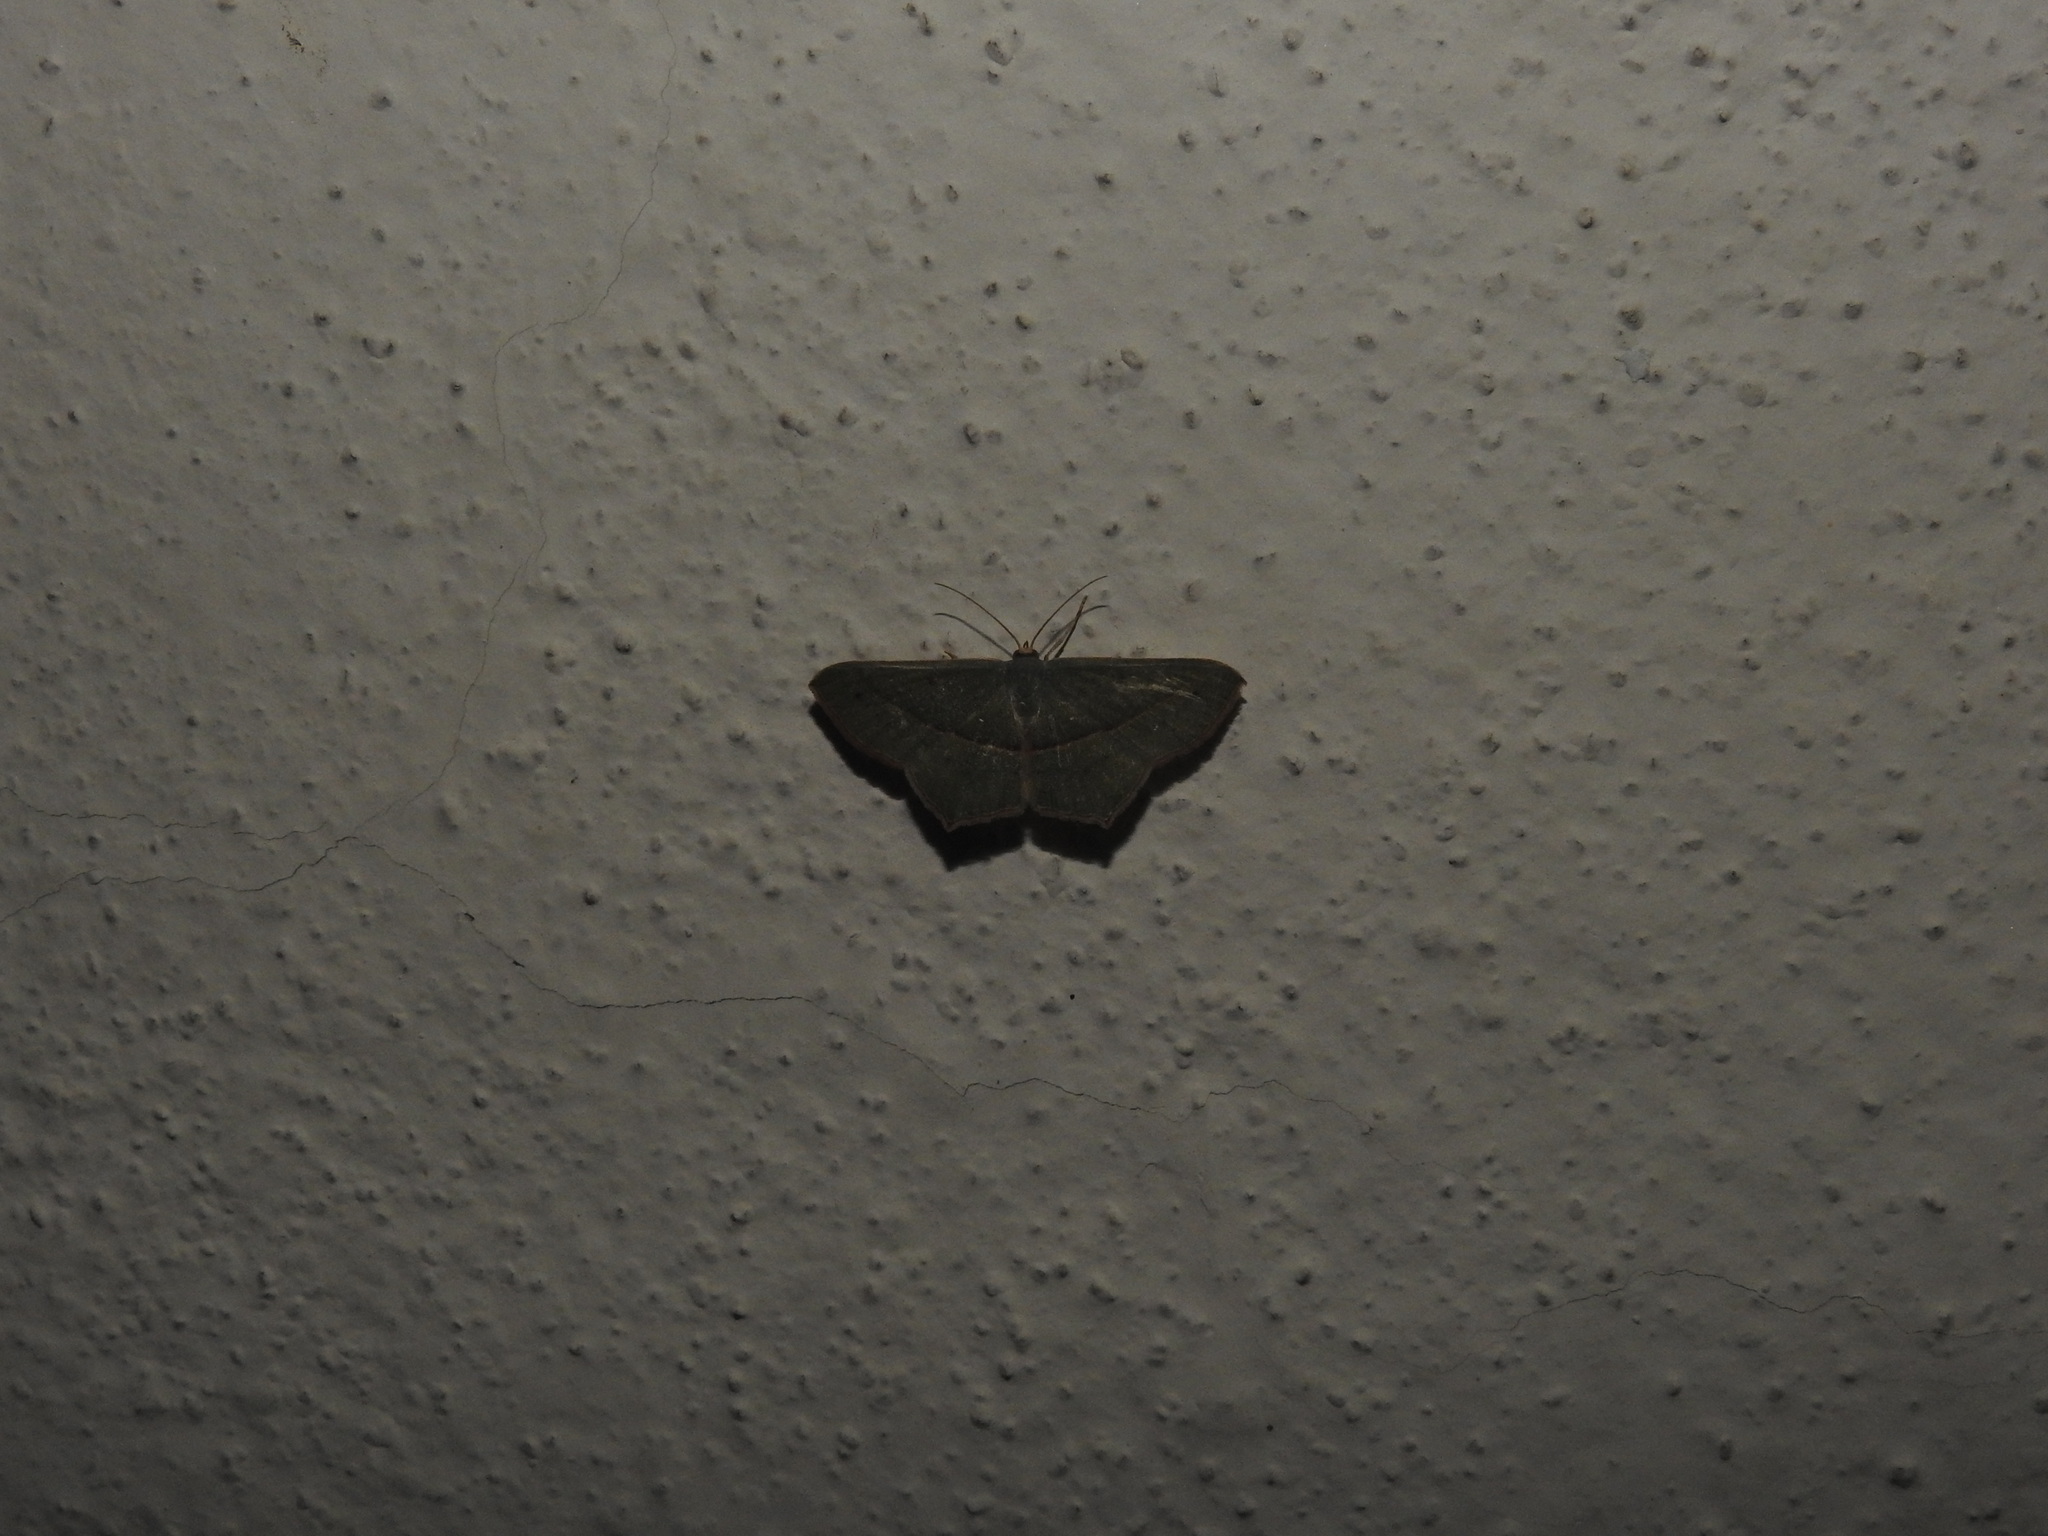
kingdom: Animalia
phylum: Arthropoda
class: Insecta
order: Lepidoptera
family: Geometridae
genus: Traminda
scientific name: Traminda mundissima
